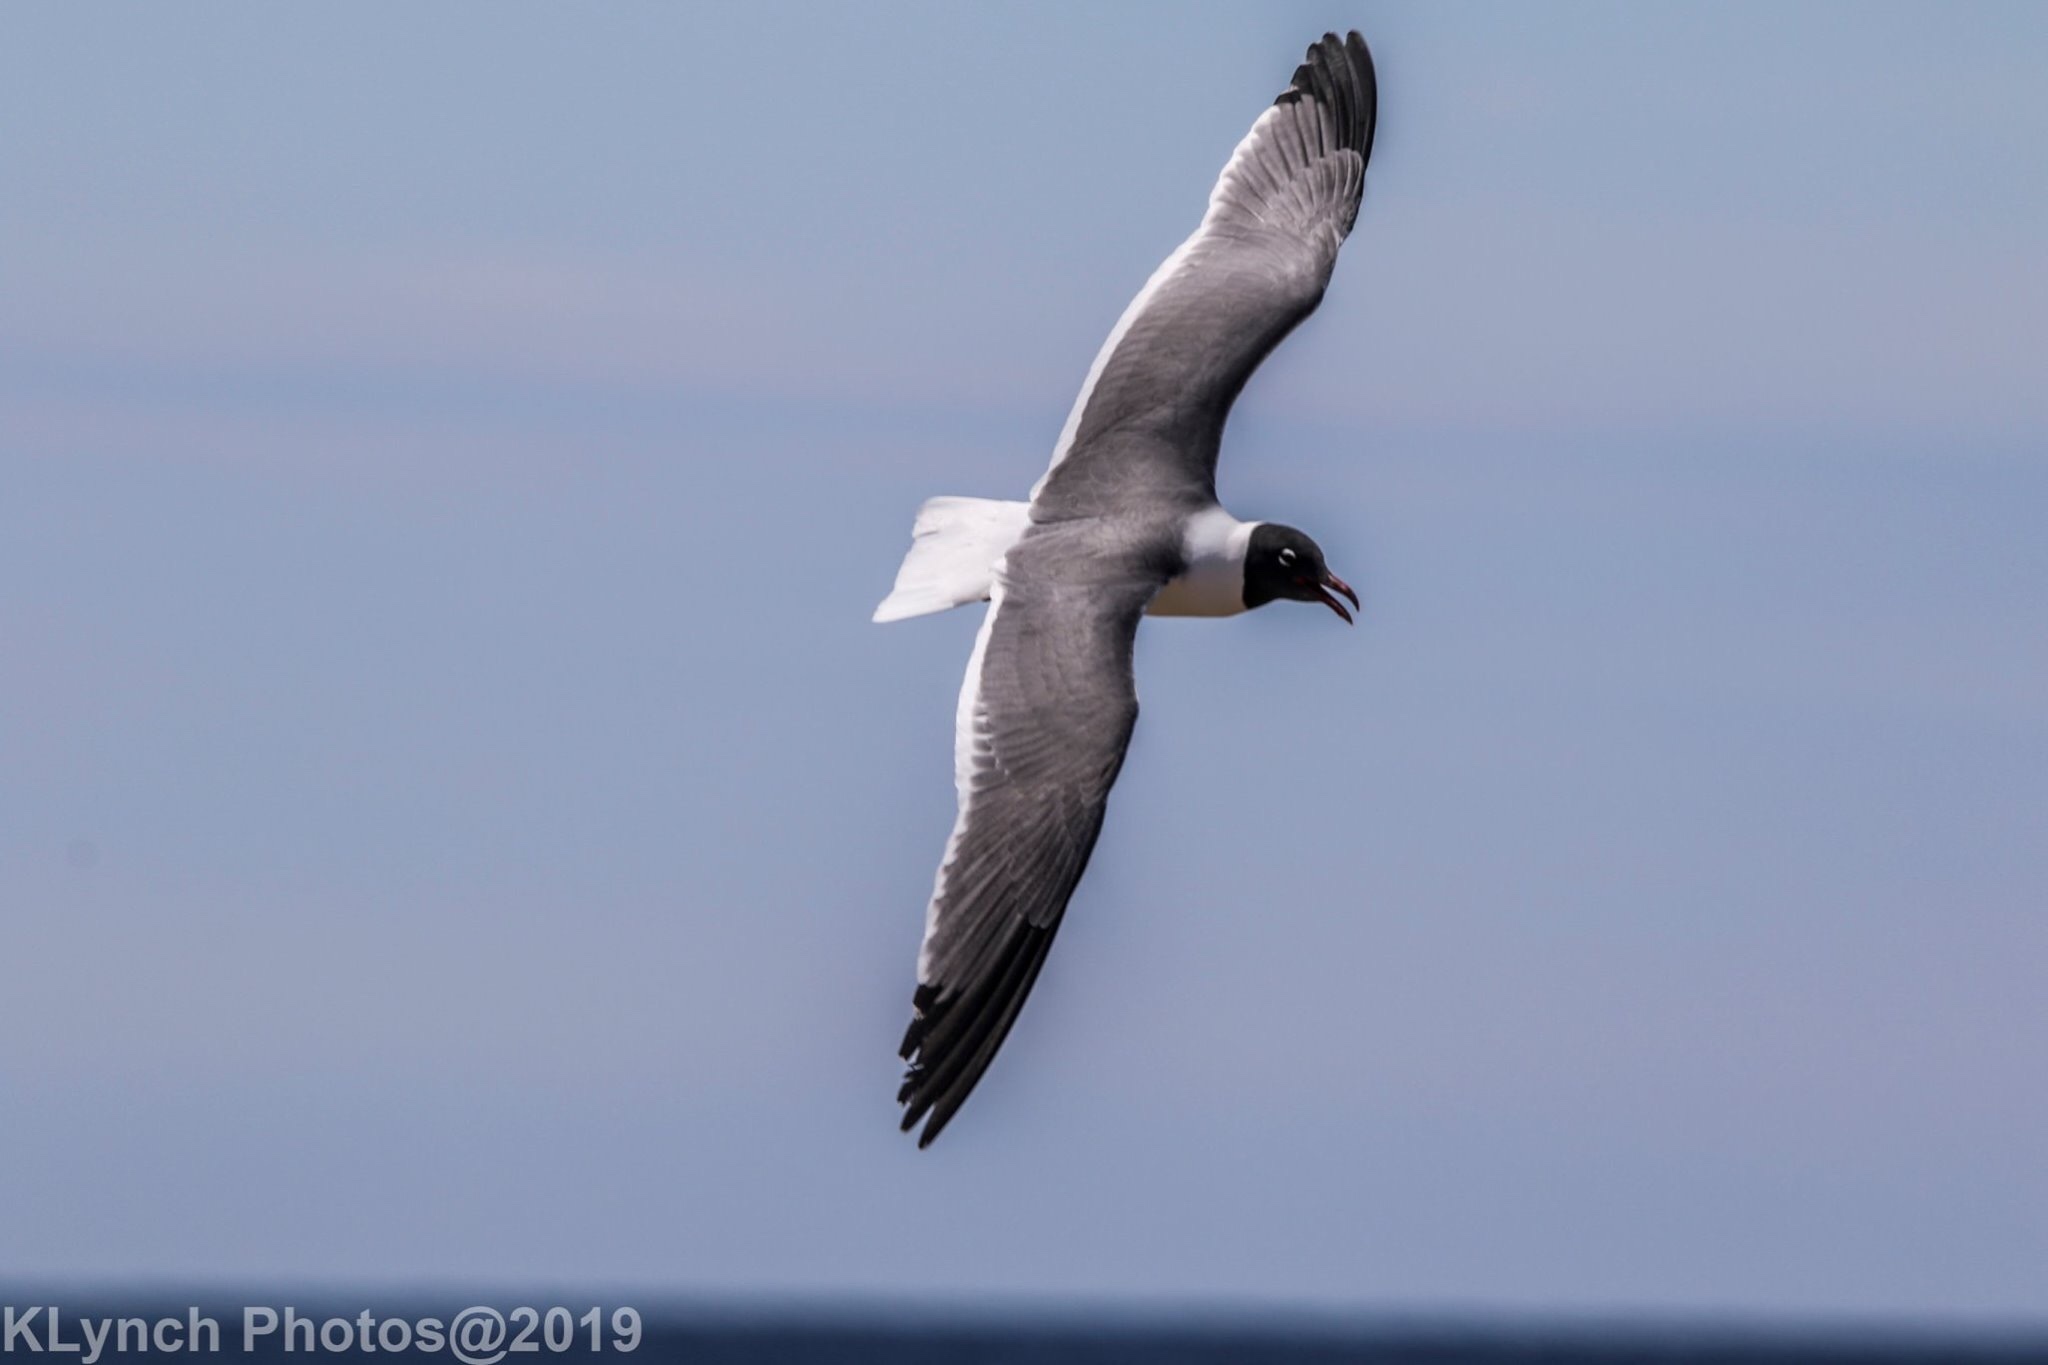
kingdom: Animalia
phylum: Chordata
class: Aves
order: Charadriiformes
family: Laridae
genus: Leucophaeus
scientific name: Leucophaeus atricilla
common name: Laughing gull
